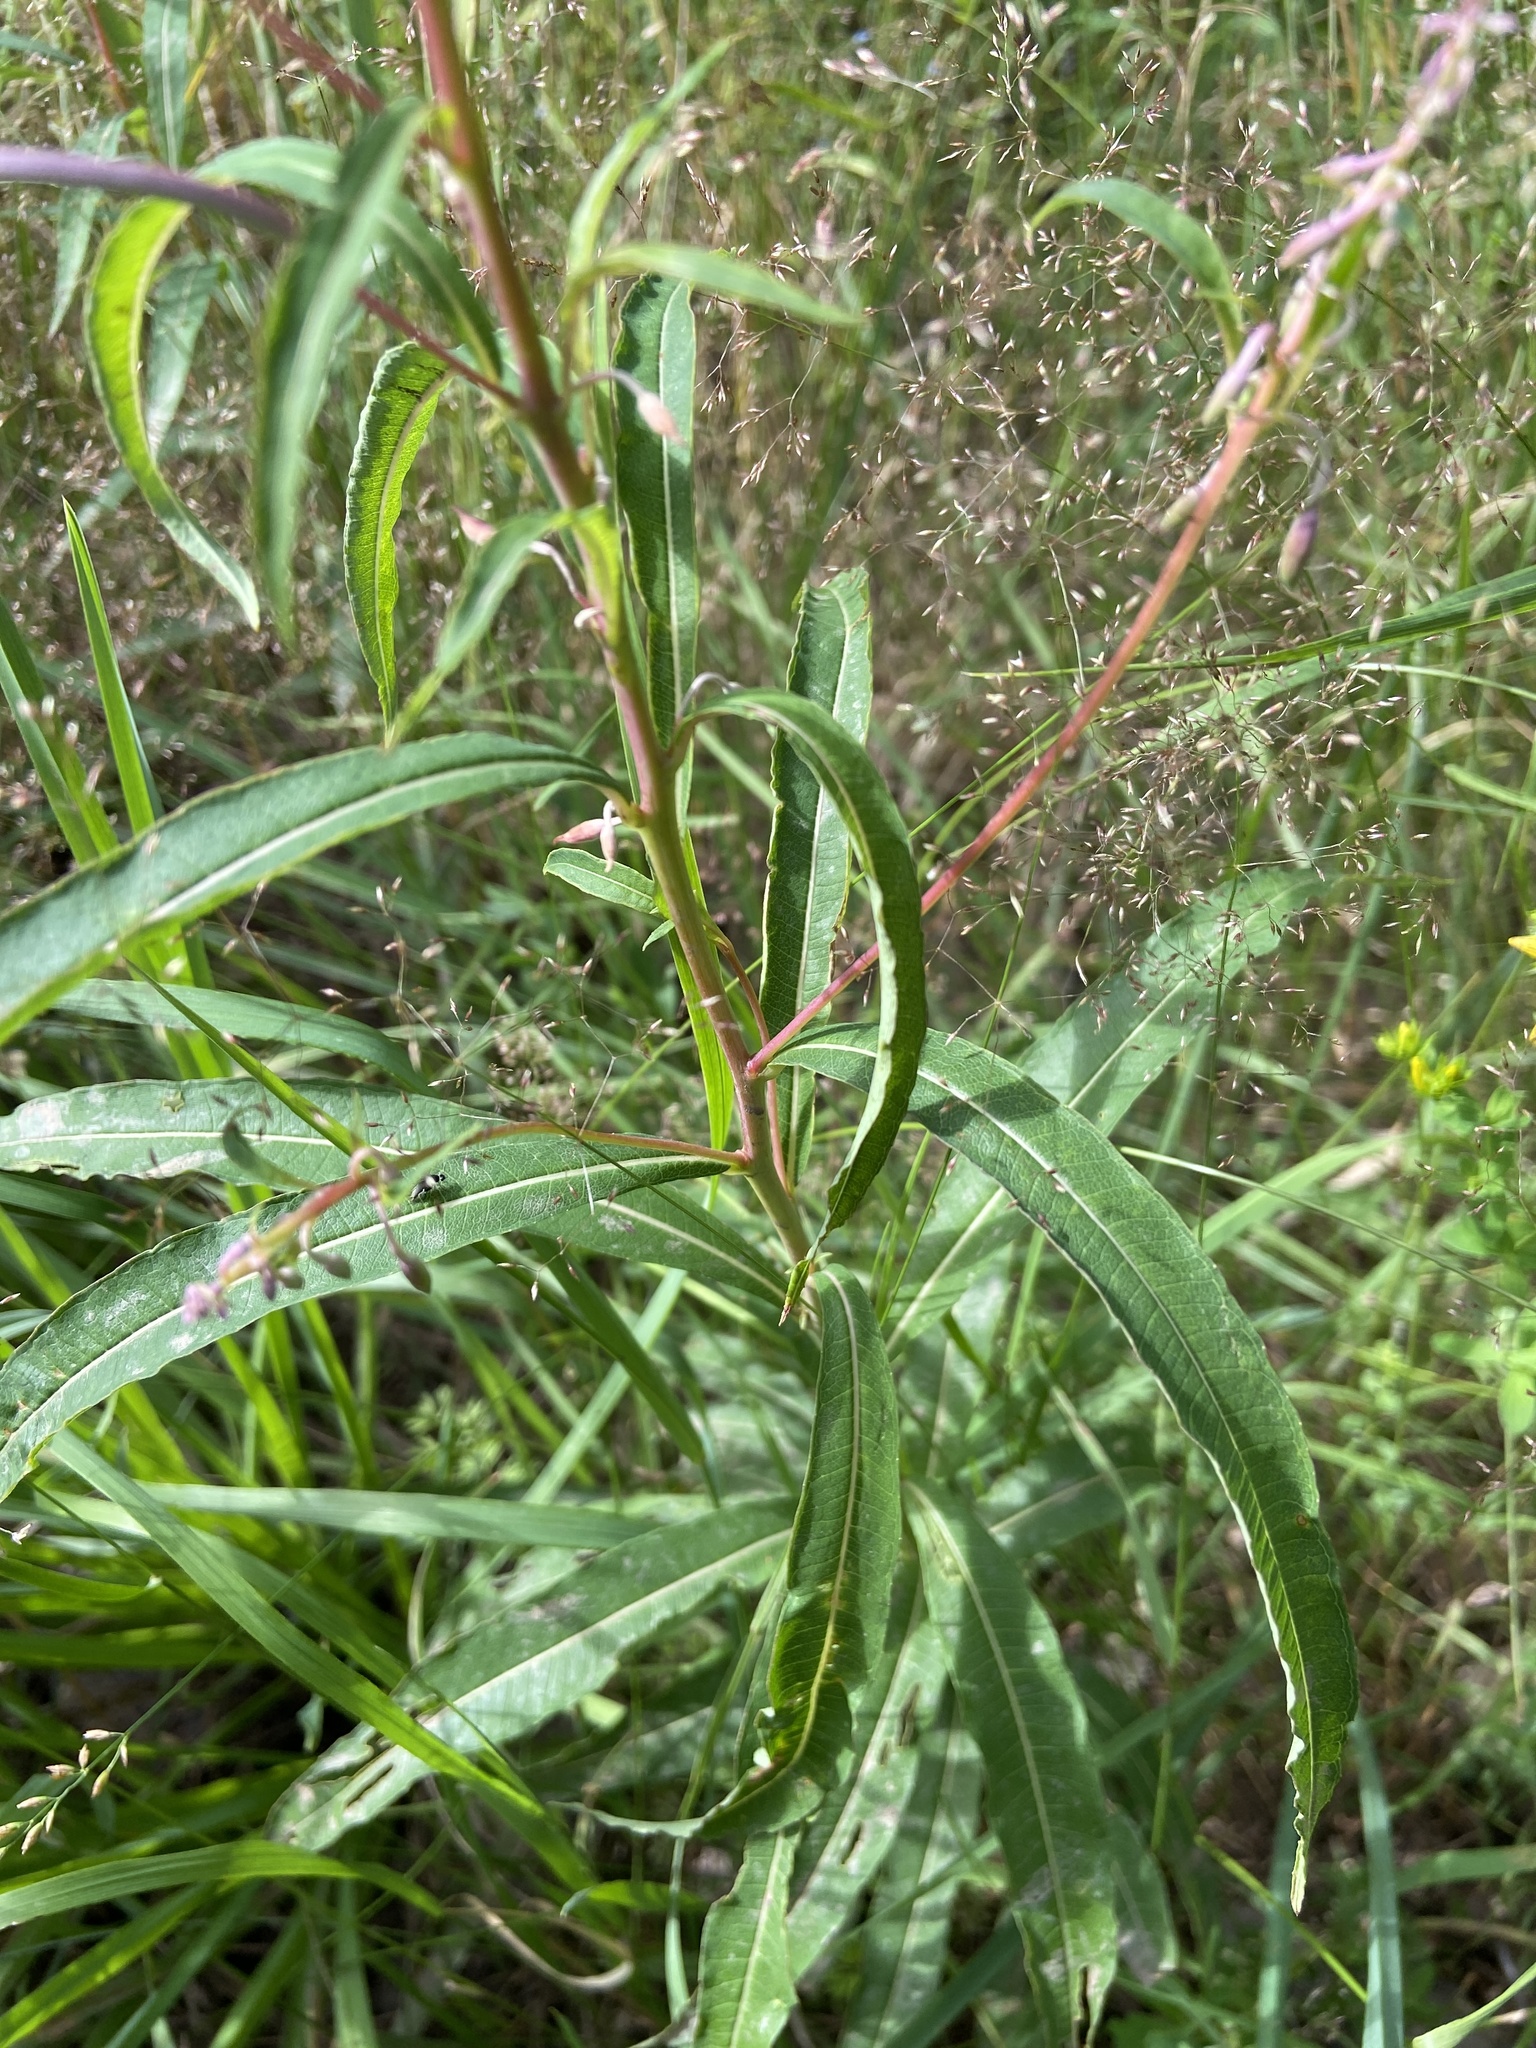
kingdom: Plantae
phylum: Tracheophyta
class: Magnoliopsida
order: Myrtales
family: Onagraceae
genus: Chamaenerion
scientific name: Chamaenerion angustifolium
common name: Fireweed
